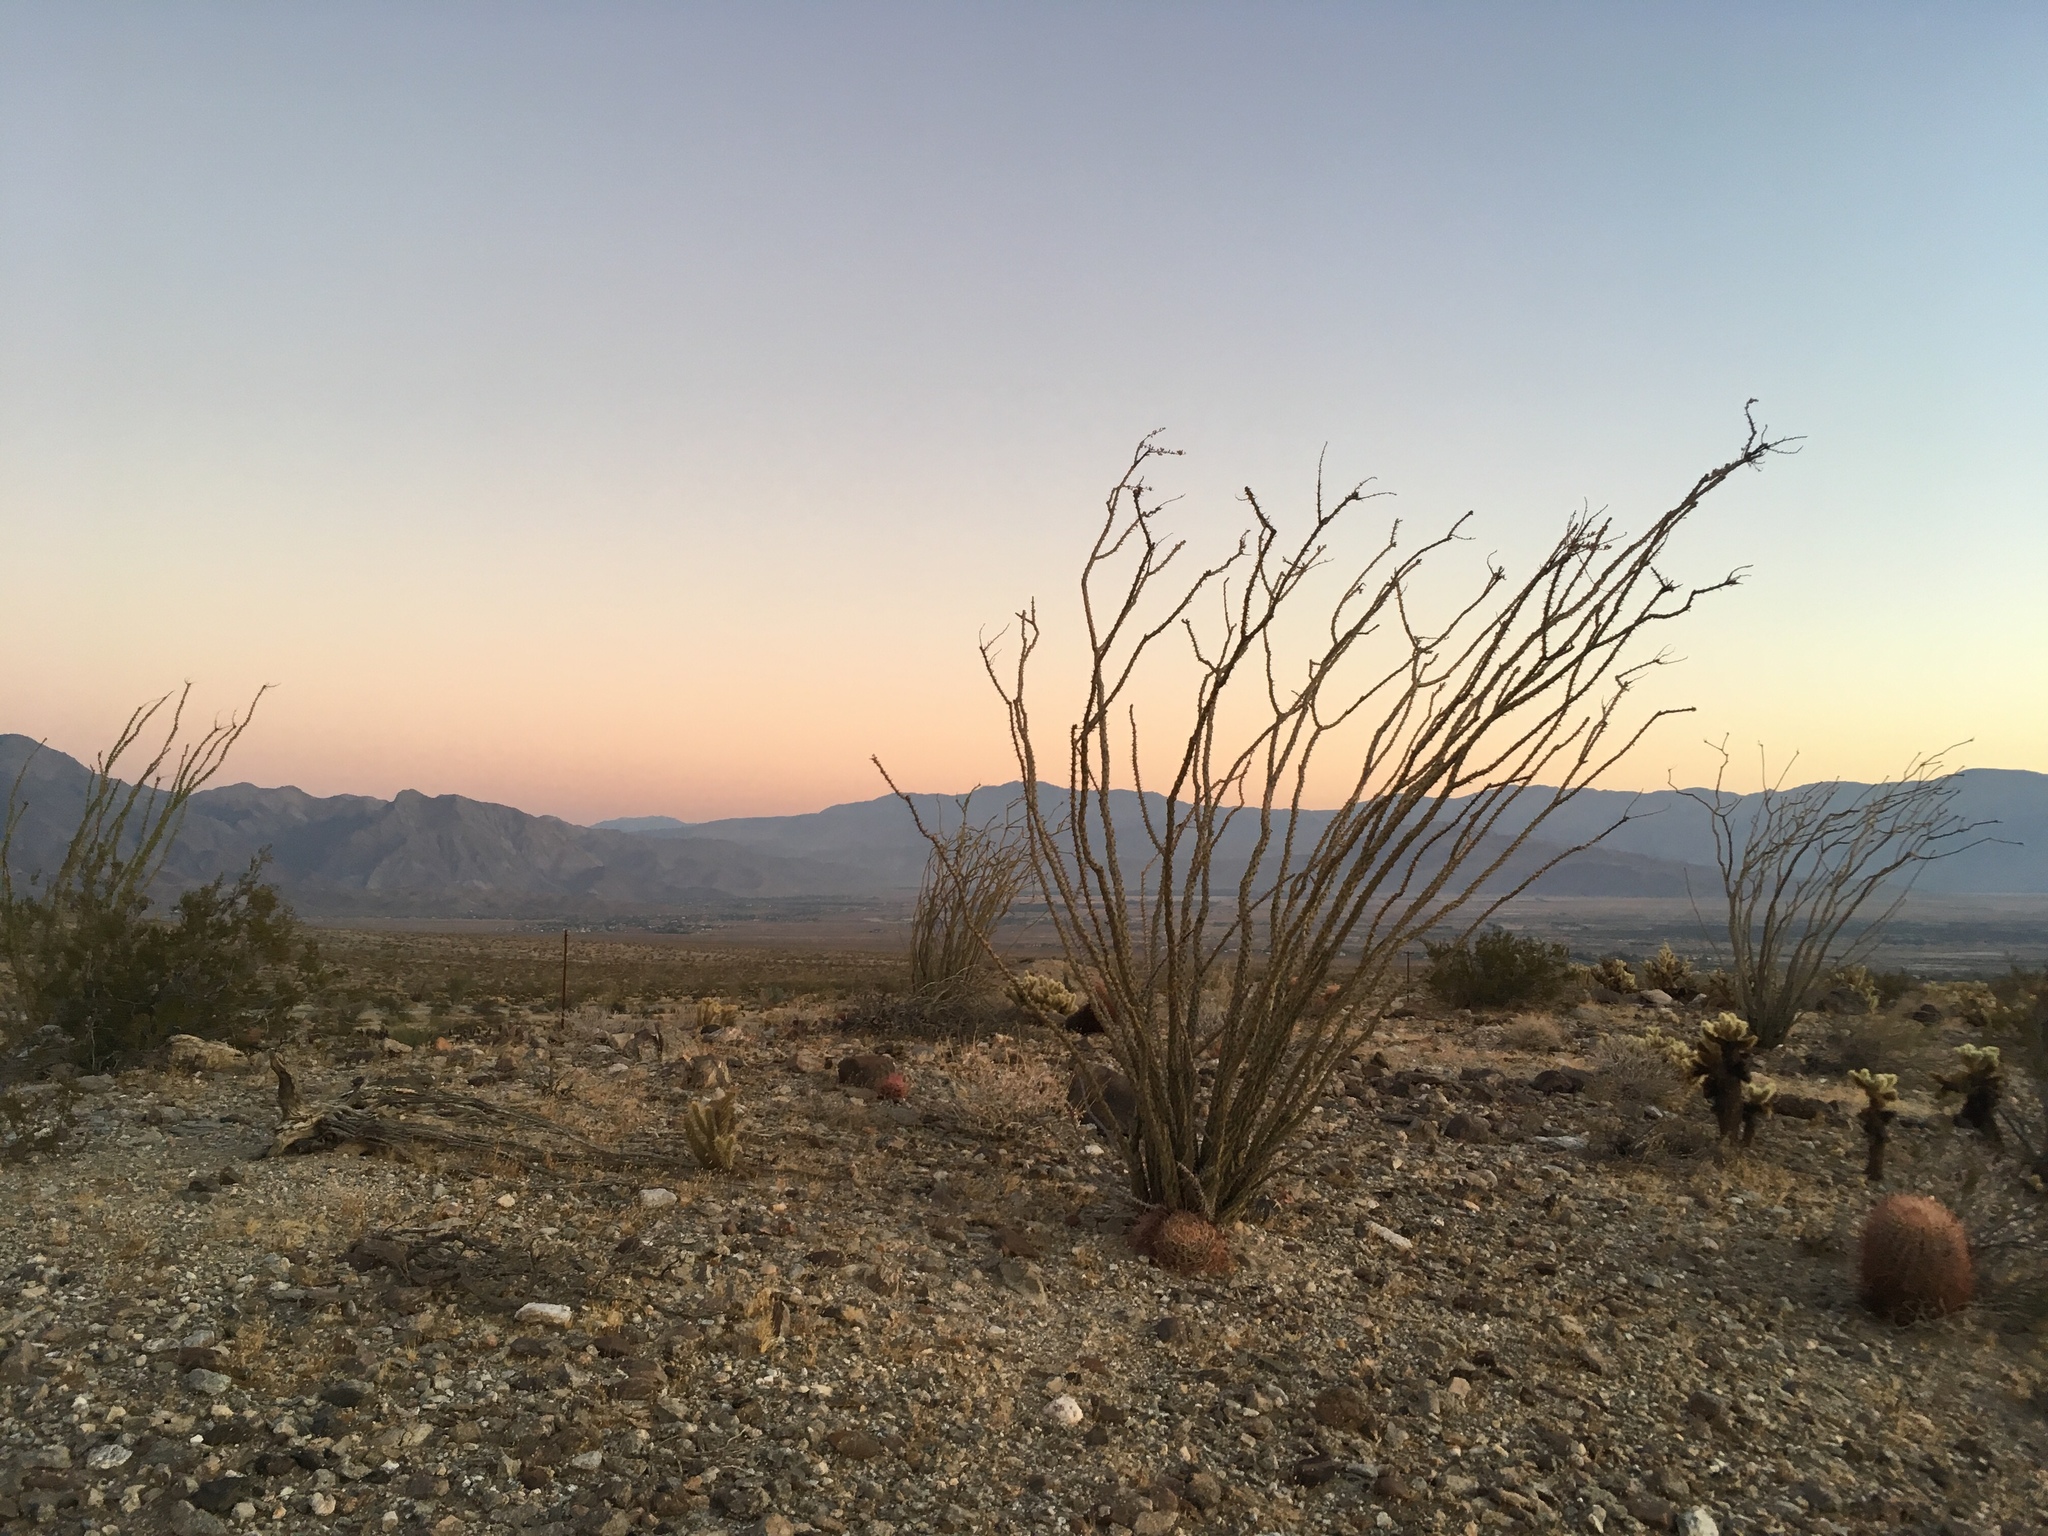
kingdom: Plantae
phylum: Tracheophyta
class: Magnoliopsida
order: Ericales
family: Fouquieriaceae
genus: Fouquieria
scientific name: Fouquieria splendens
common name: Vine-cactus
